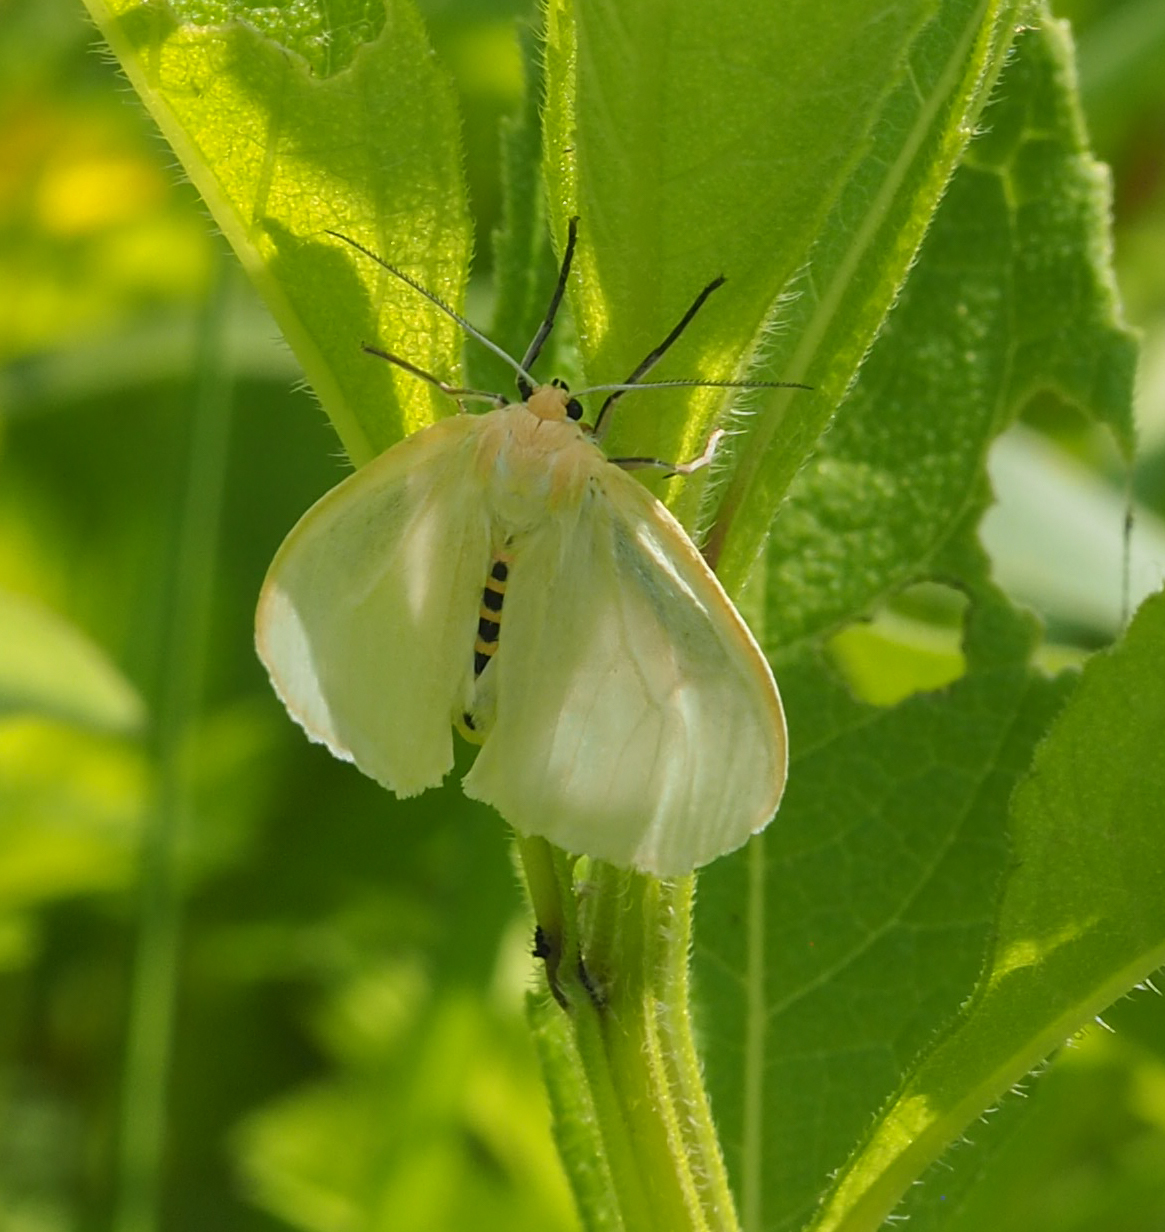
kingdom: Animalia
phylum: Arthropoda
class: Insecta
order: Lepidoptera
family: Erebidae
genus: Cycnia
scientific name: Cycnia tenera
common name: Delicate cycnia moth
